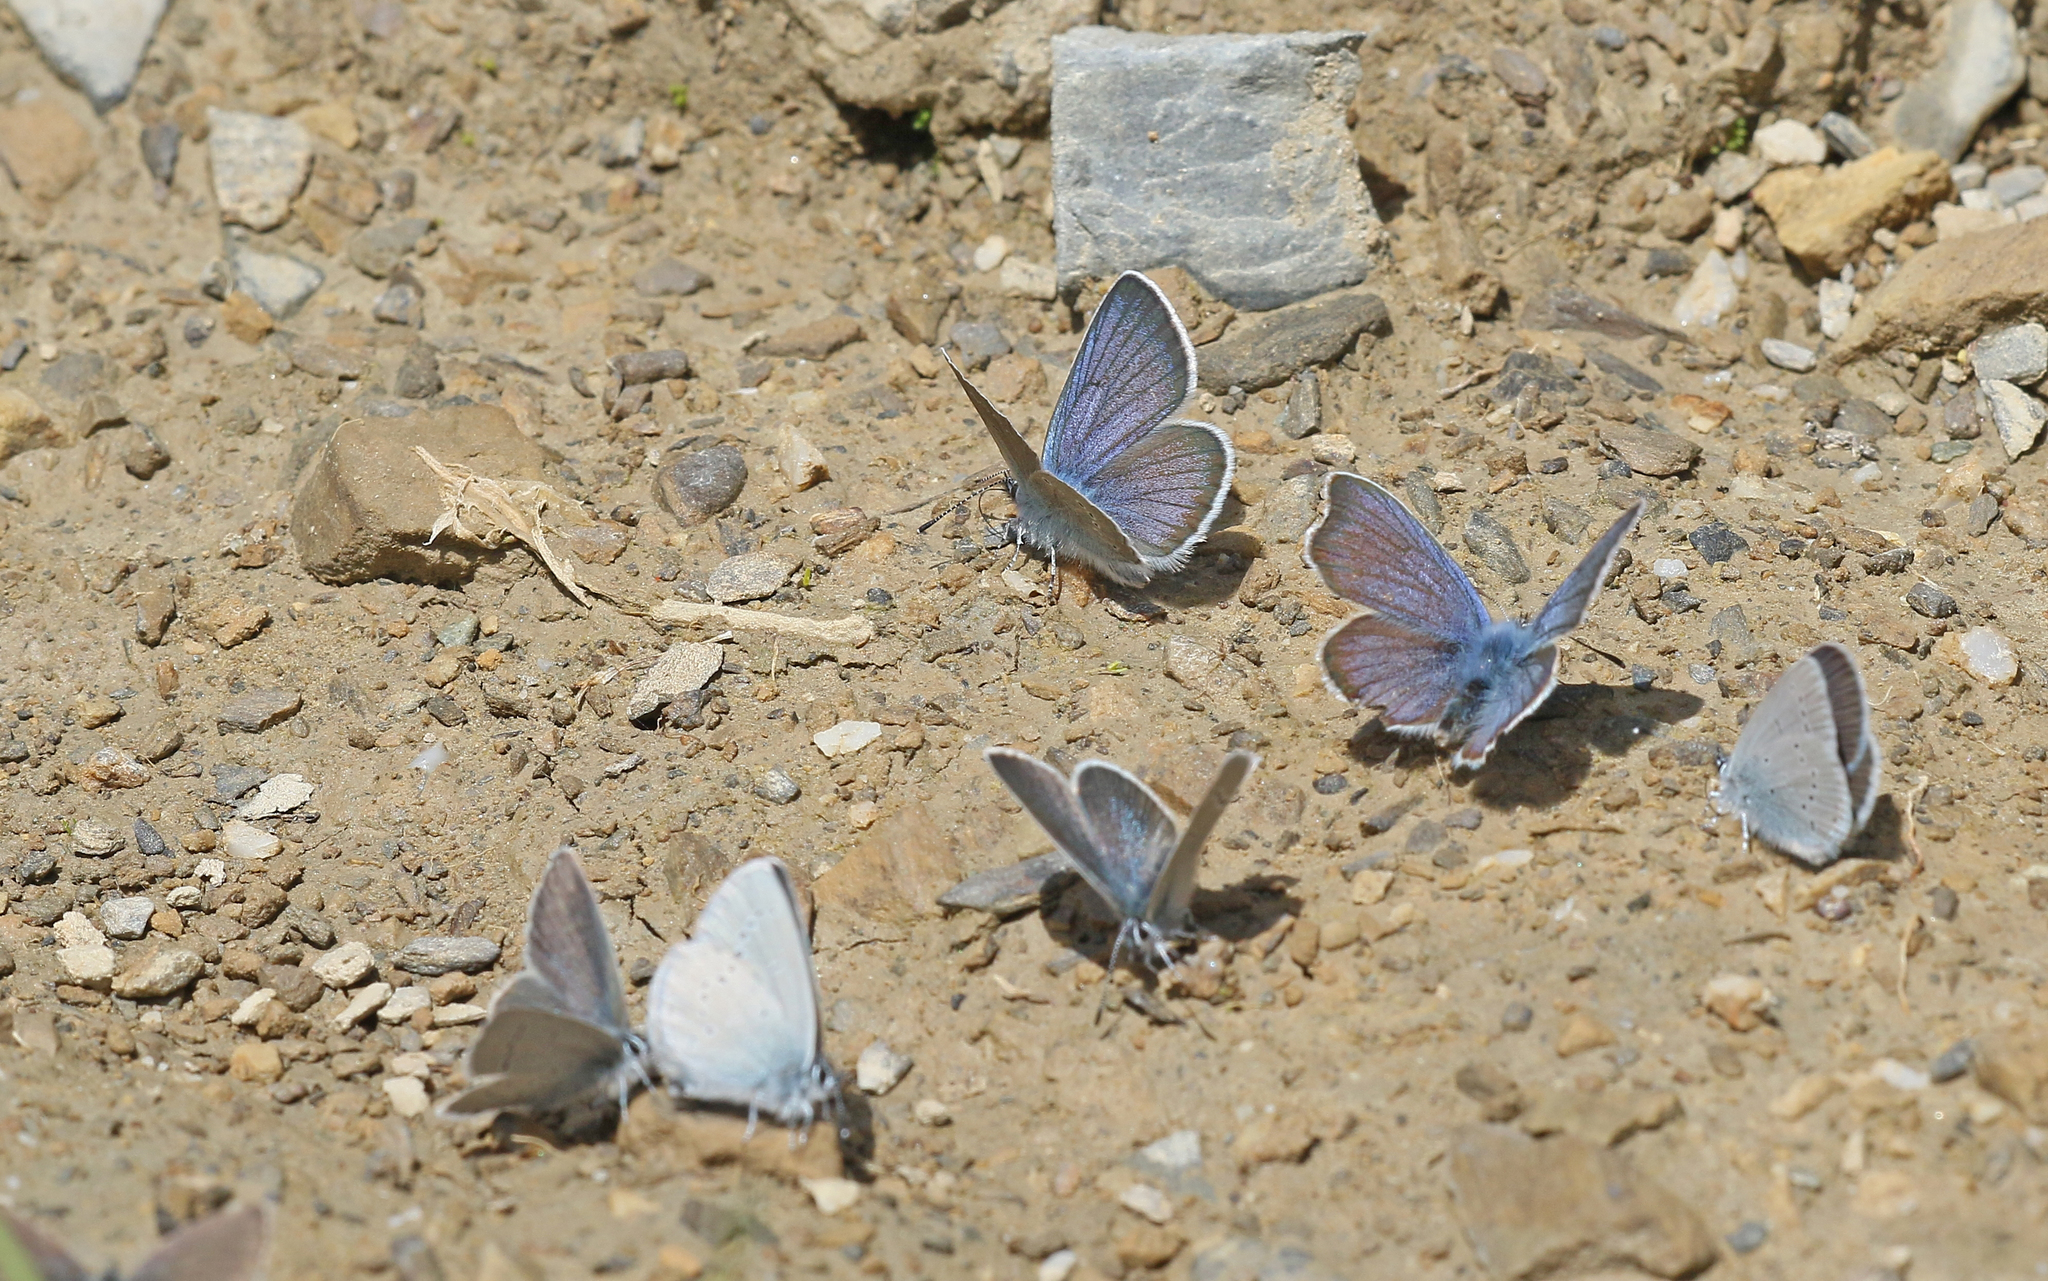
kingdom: Animalia
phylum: Arthropoda
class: Insecta
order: Lepidoptera
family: Lycaenidae
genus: Cyaniris
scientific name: Cyaniris semiargus
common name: Mazarine blue
